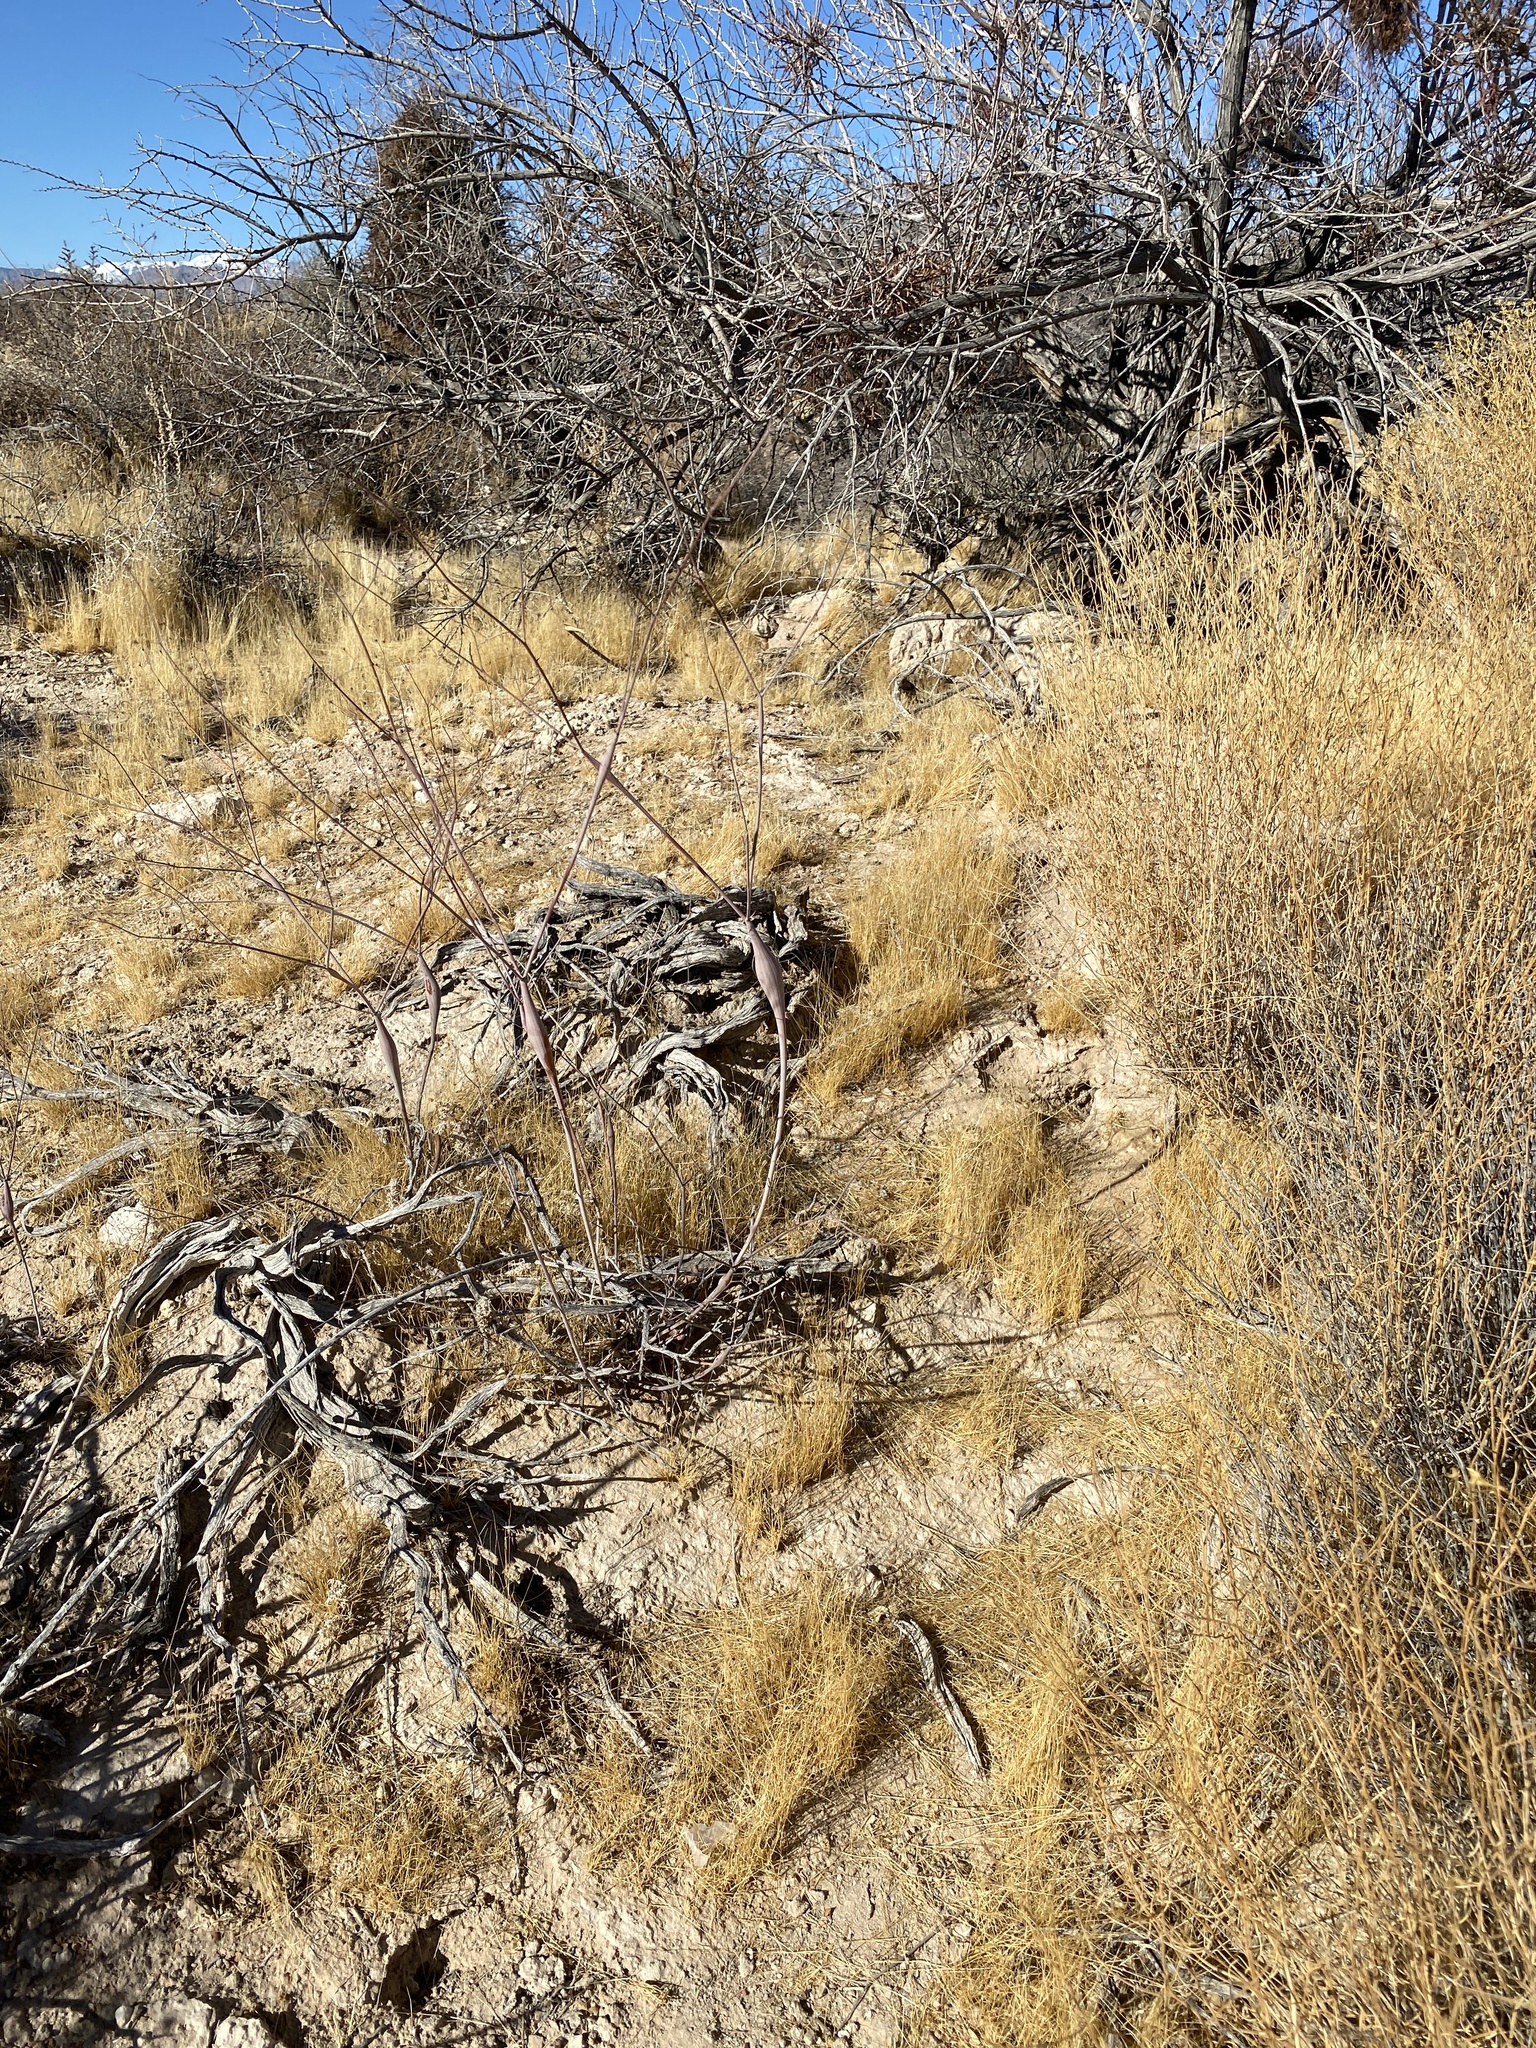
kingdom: Plantae
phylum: Tracheophyta
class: Magnoliopsida
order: Caryophyllales
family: Polygonaceae
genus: Eriogonum
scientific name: Eriogonum inflatum
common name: Desert trumpet
